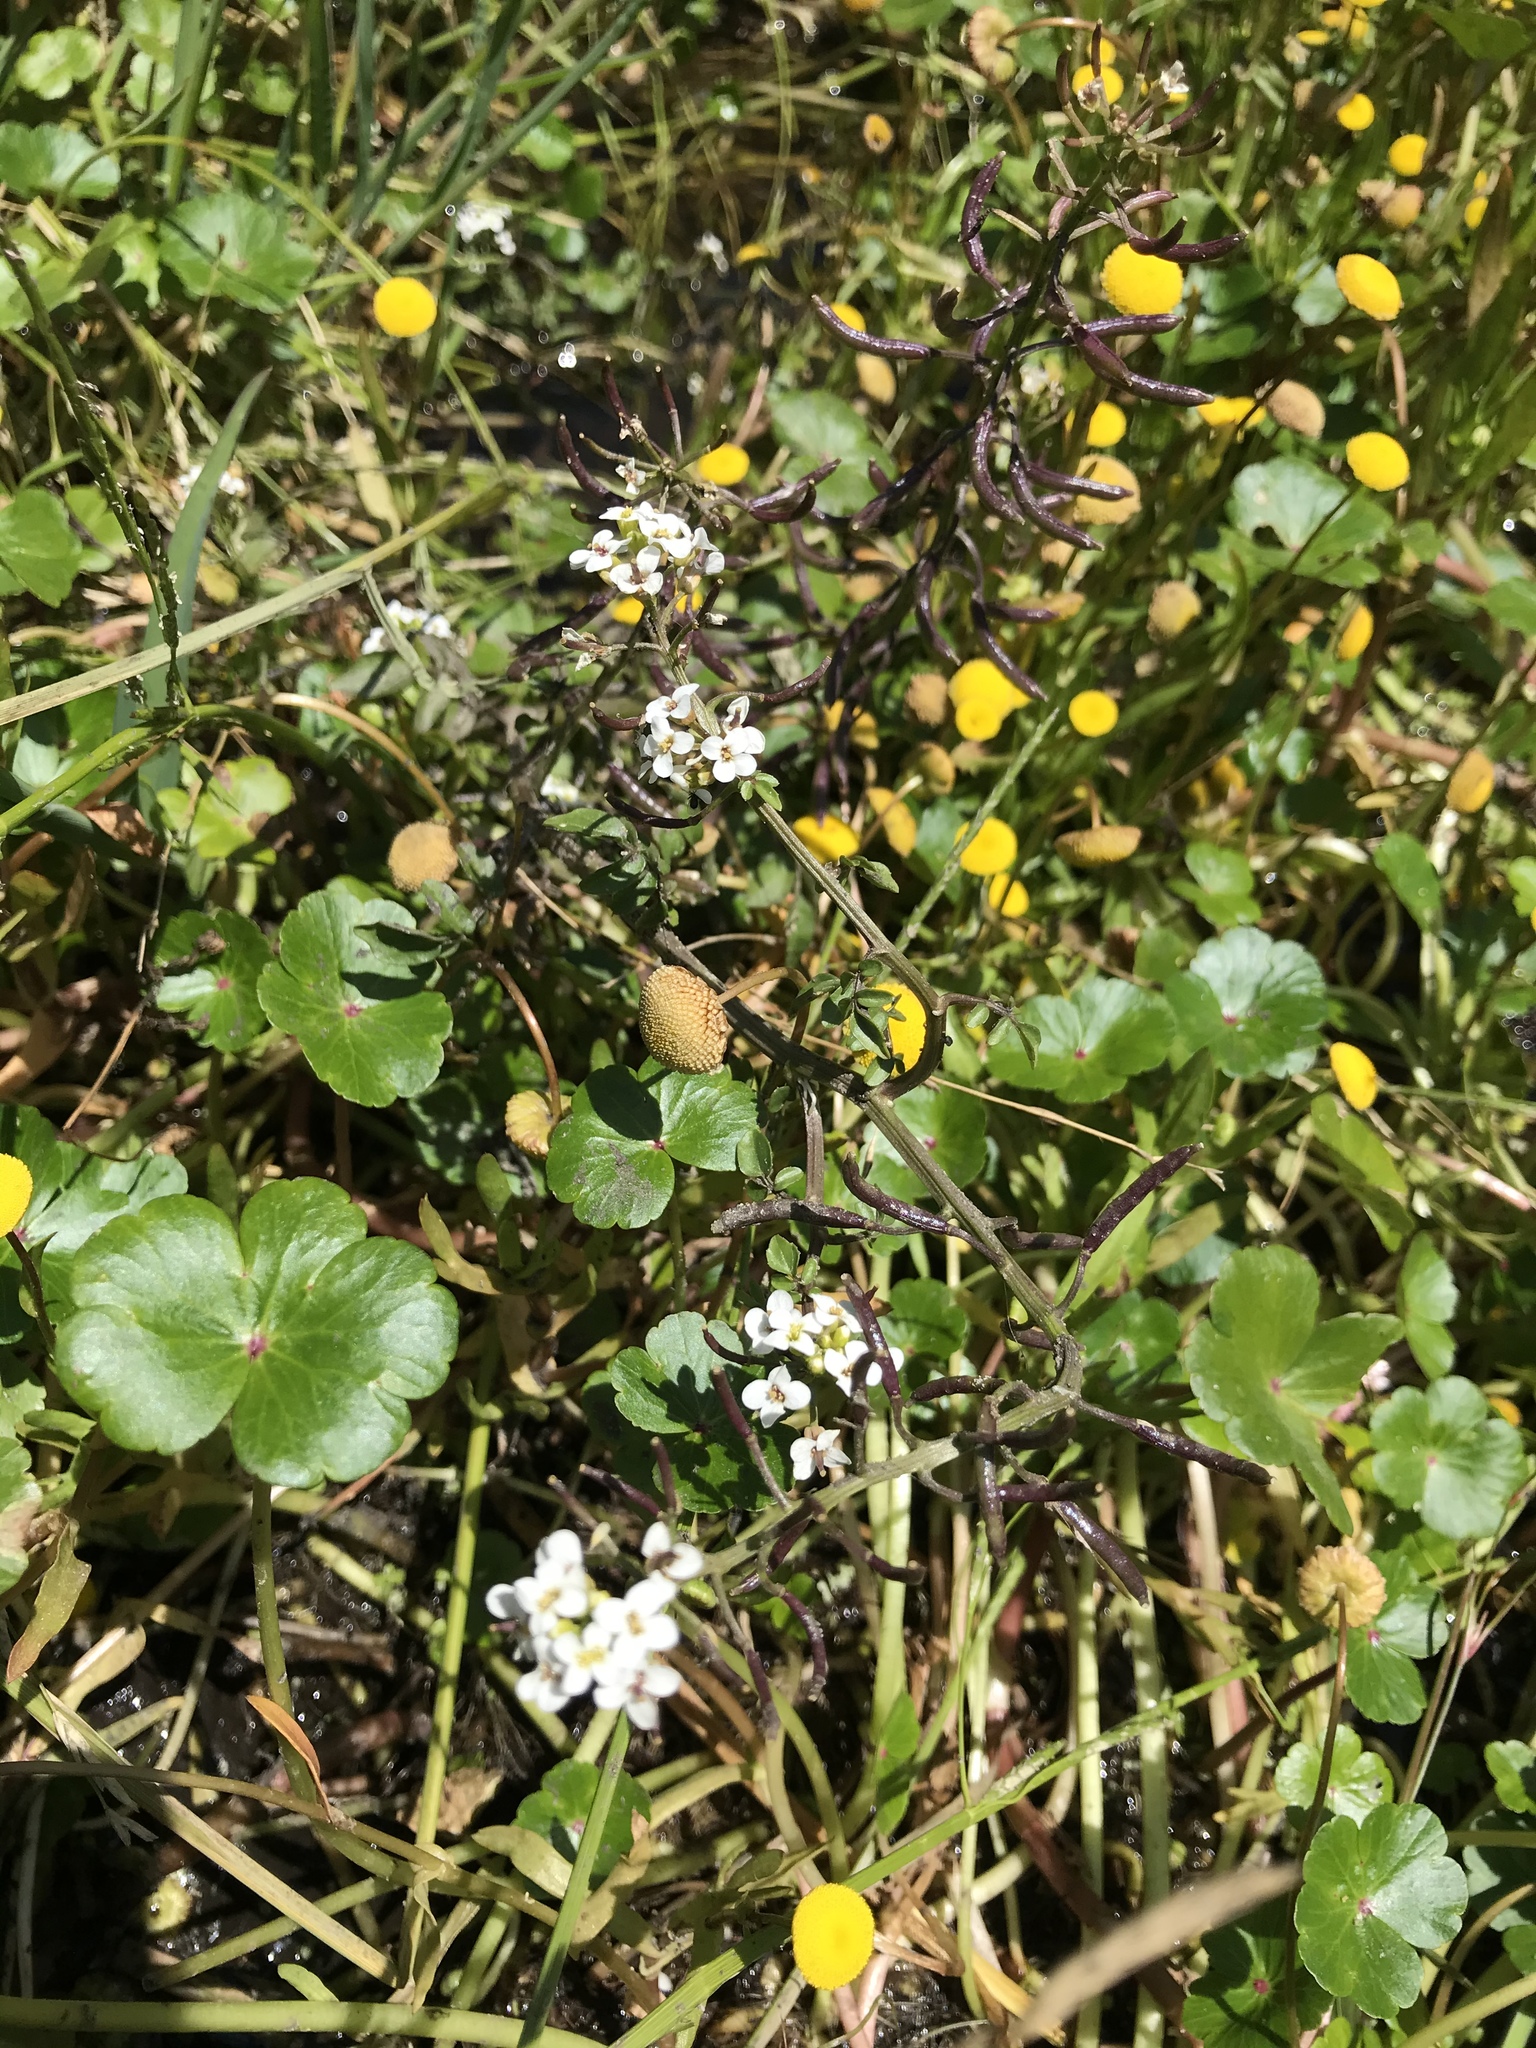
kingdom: Plantae
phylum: Tracheophyta
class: Magnoliopsida
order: Brassicales
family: Brassicaceae
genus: Nasturtium
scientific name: Nasturtium officinale
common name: Watercress
